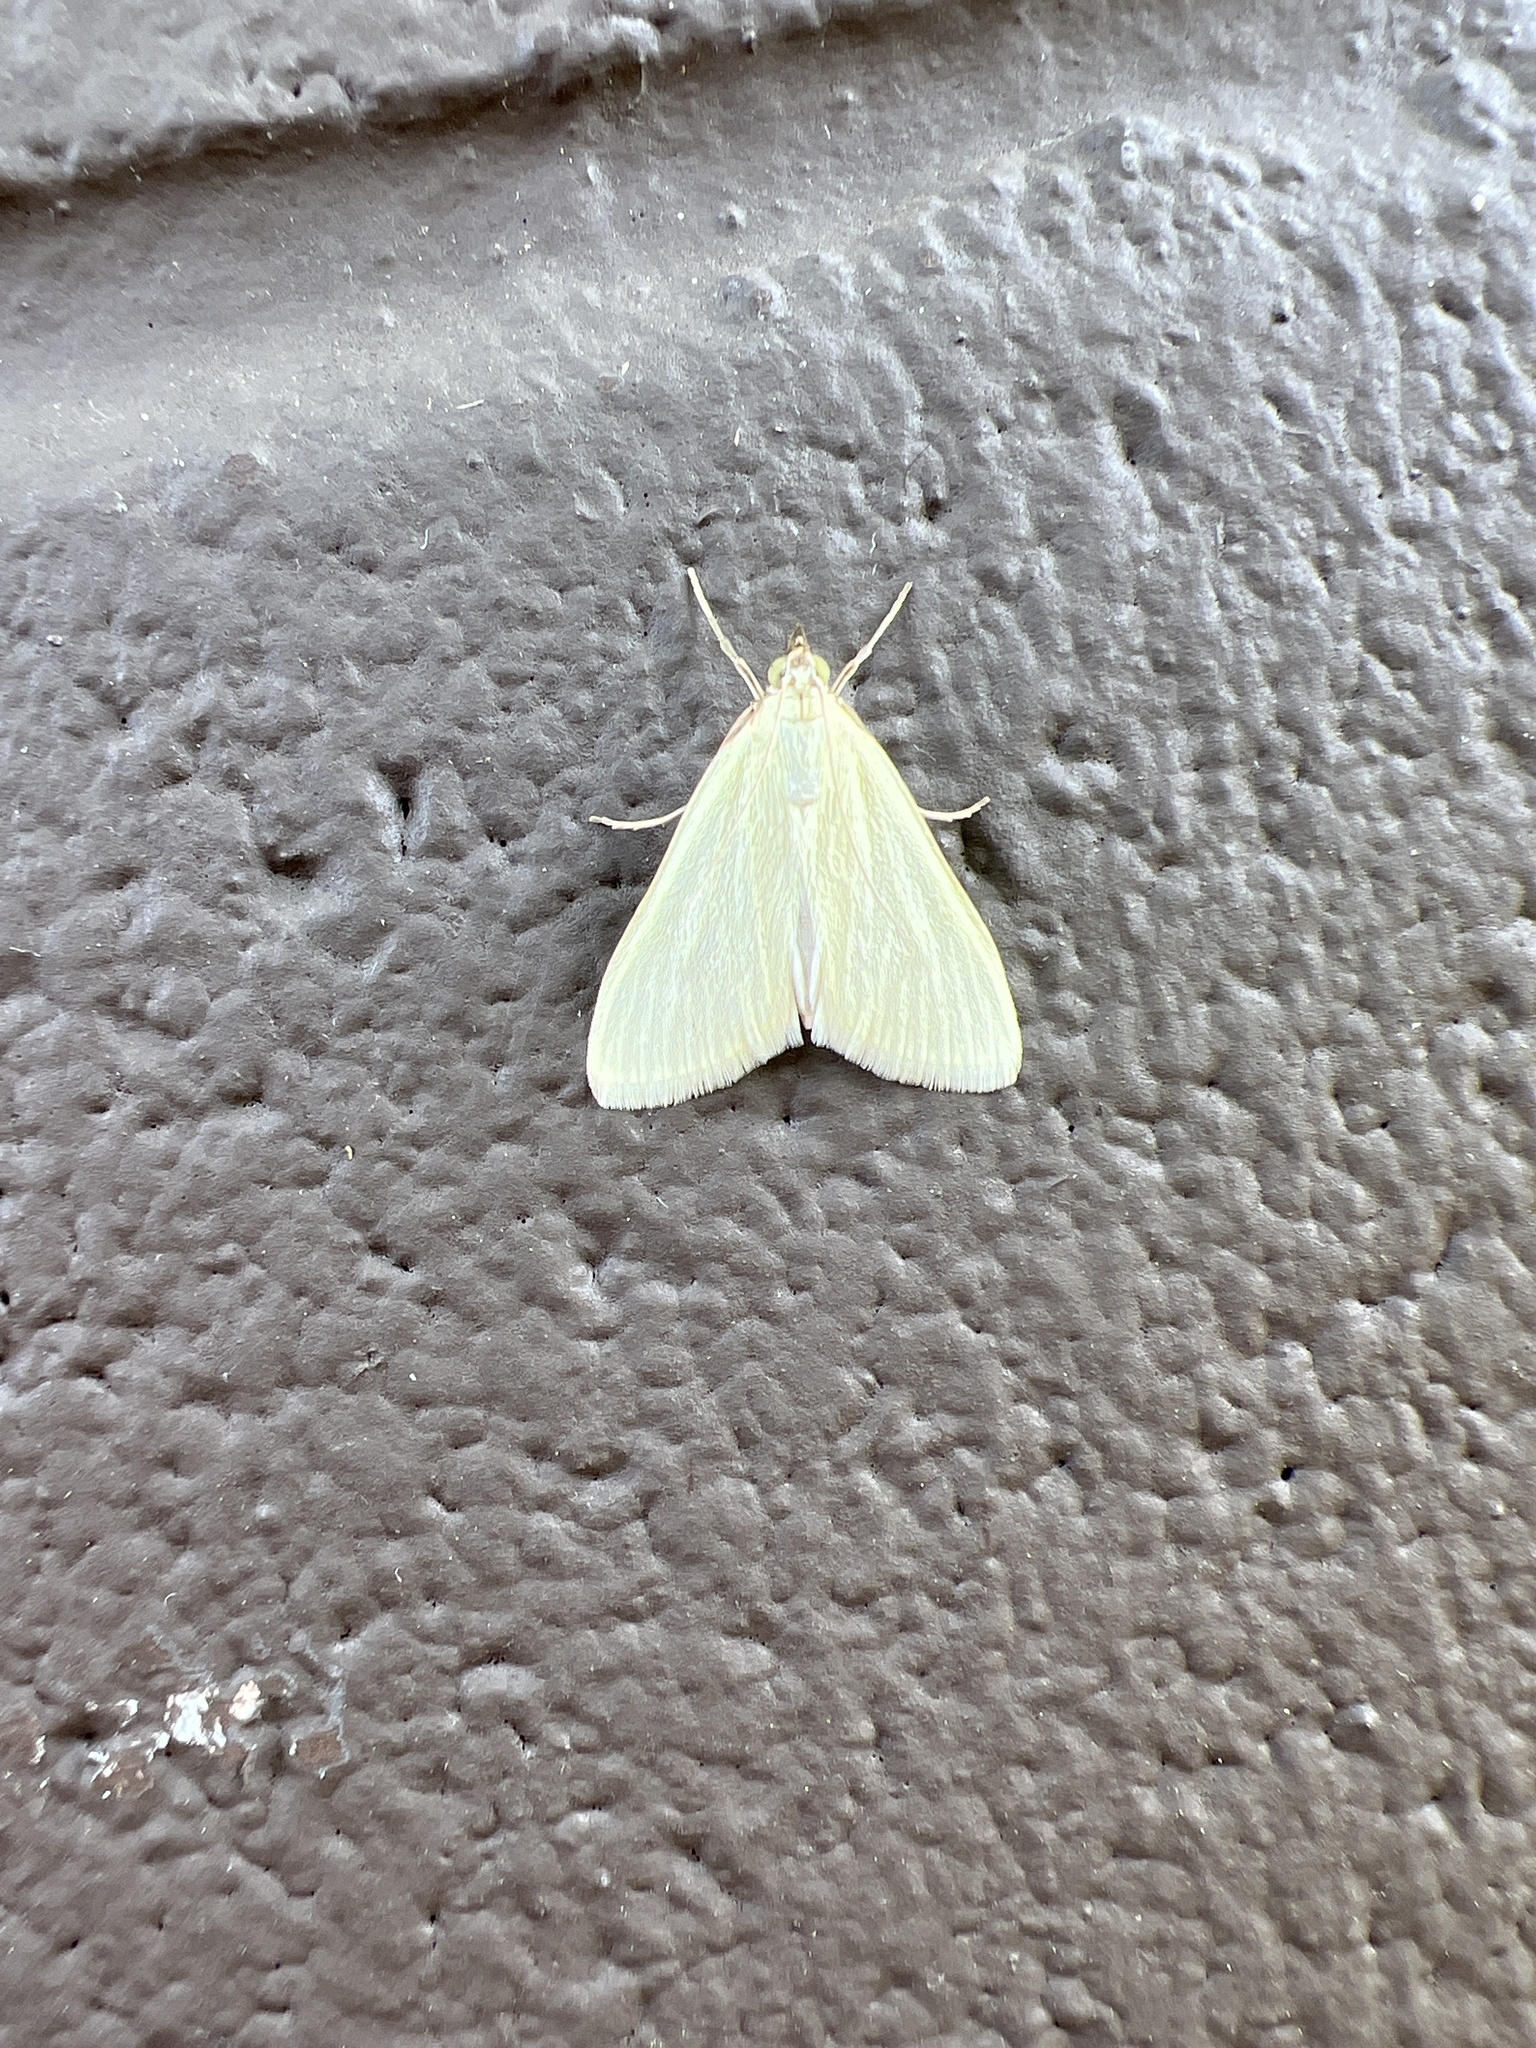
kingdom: Animalia
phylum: Arthropoda
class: Insecta
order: Lepidoptera
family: Crambidae
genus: Sitochroa
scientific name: Sitochroa palealis
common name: Greenish-yellow sitochroa moth
